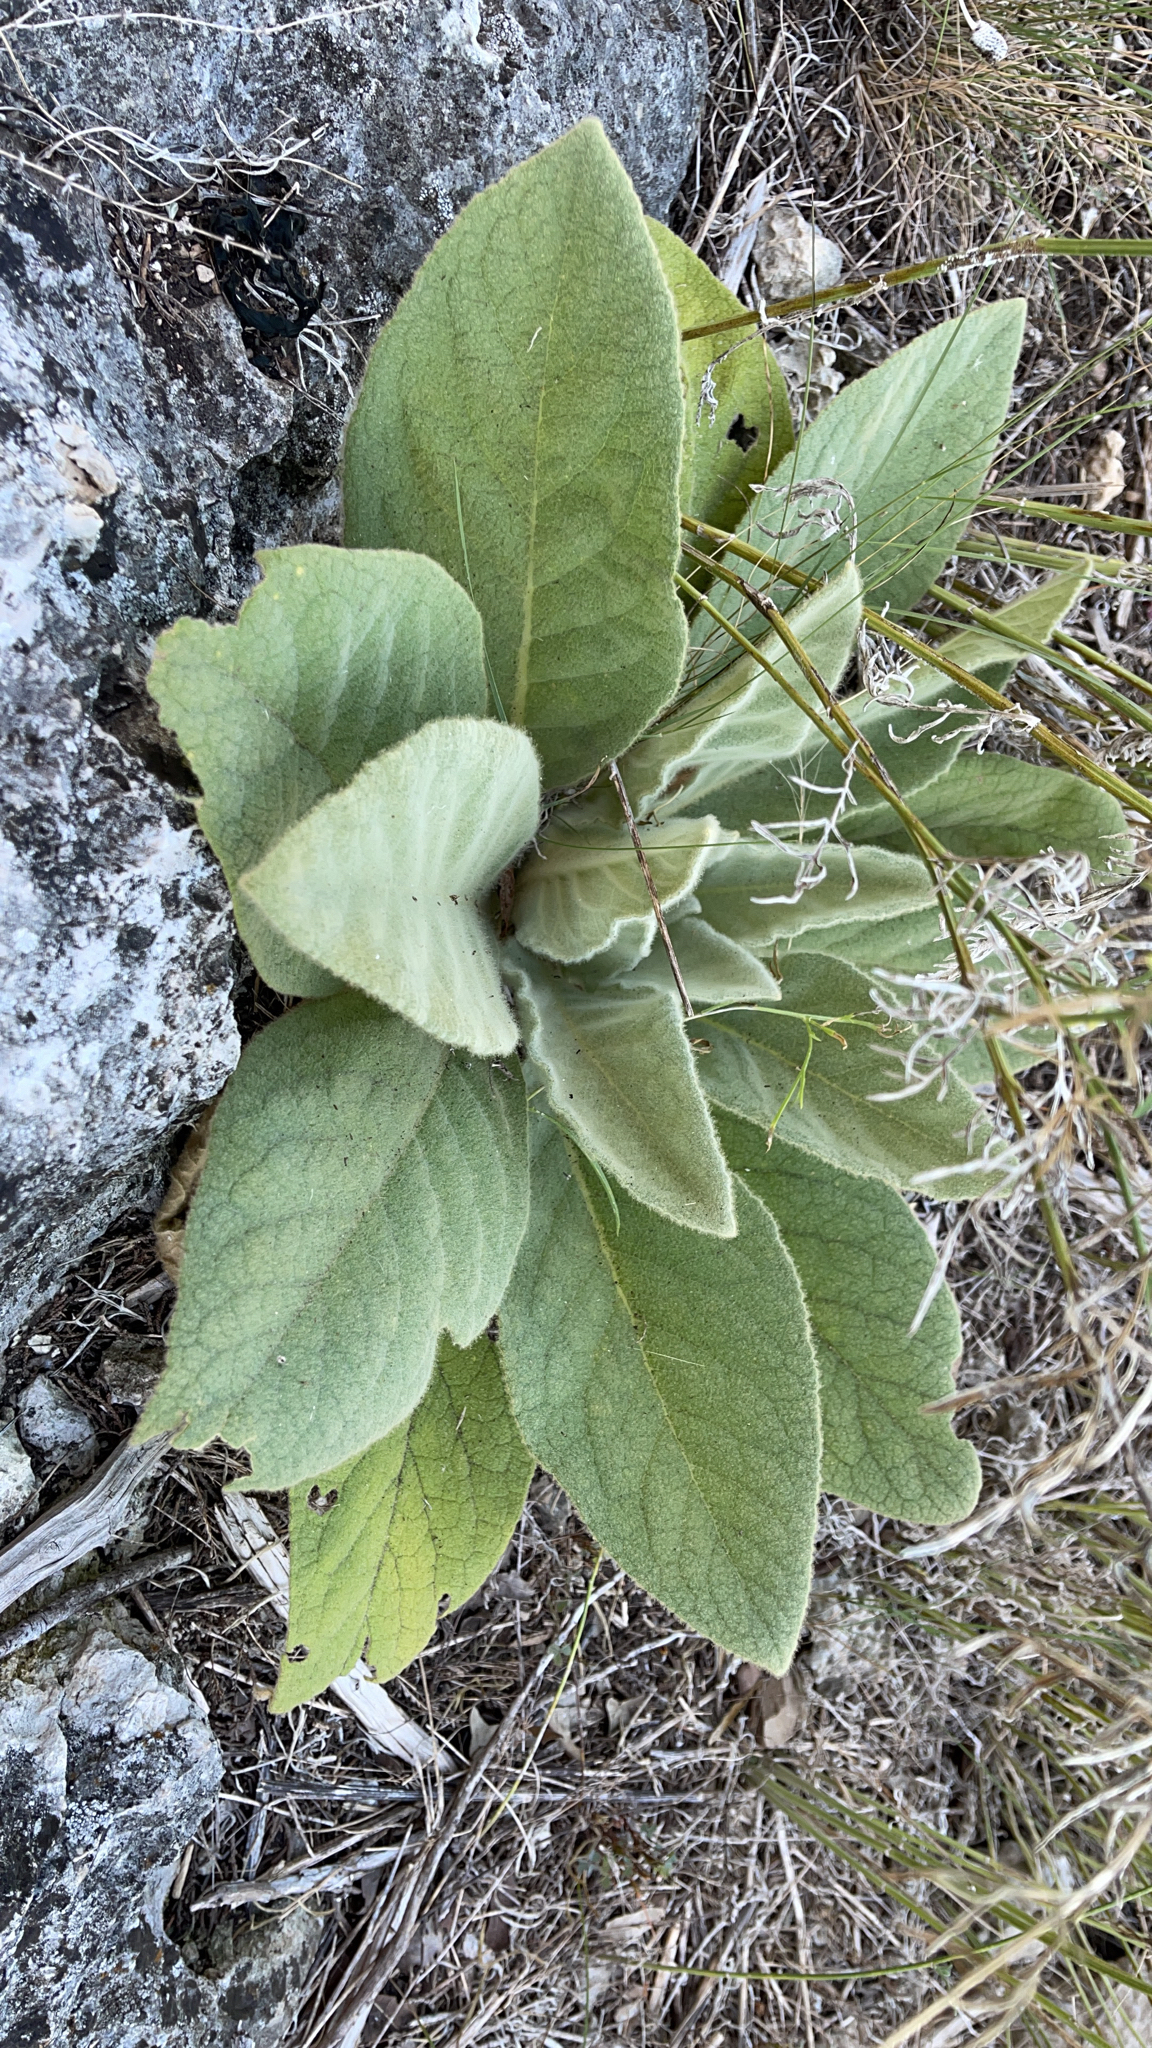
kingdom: Plantae
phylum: Tracheophyta
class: Magnoliopsida
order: Lamiales
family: Scrophulariaceae
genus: Verbascum
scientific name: Verbascum thapsus
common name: Common mullein
